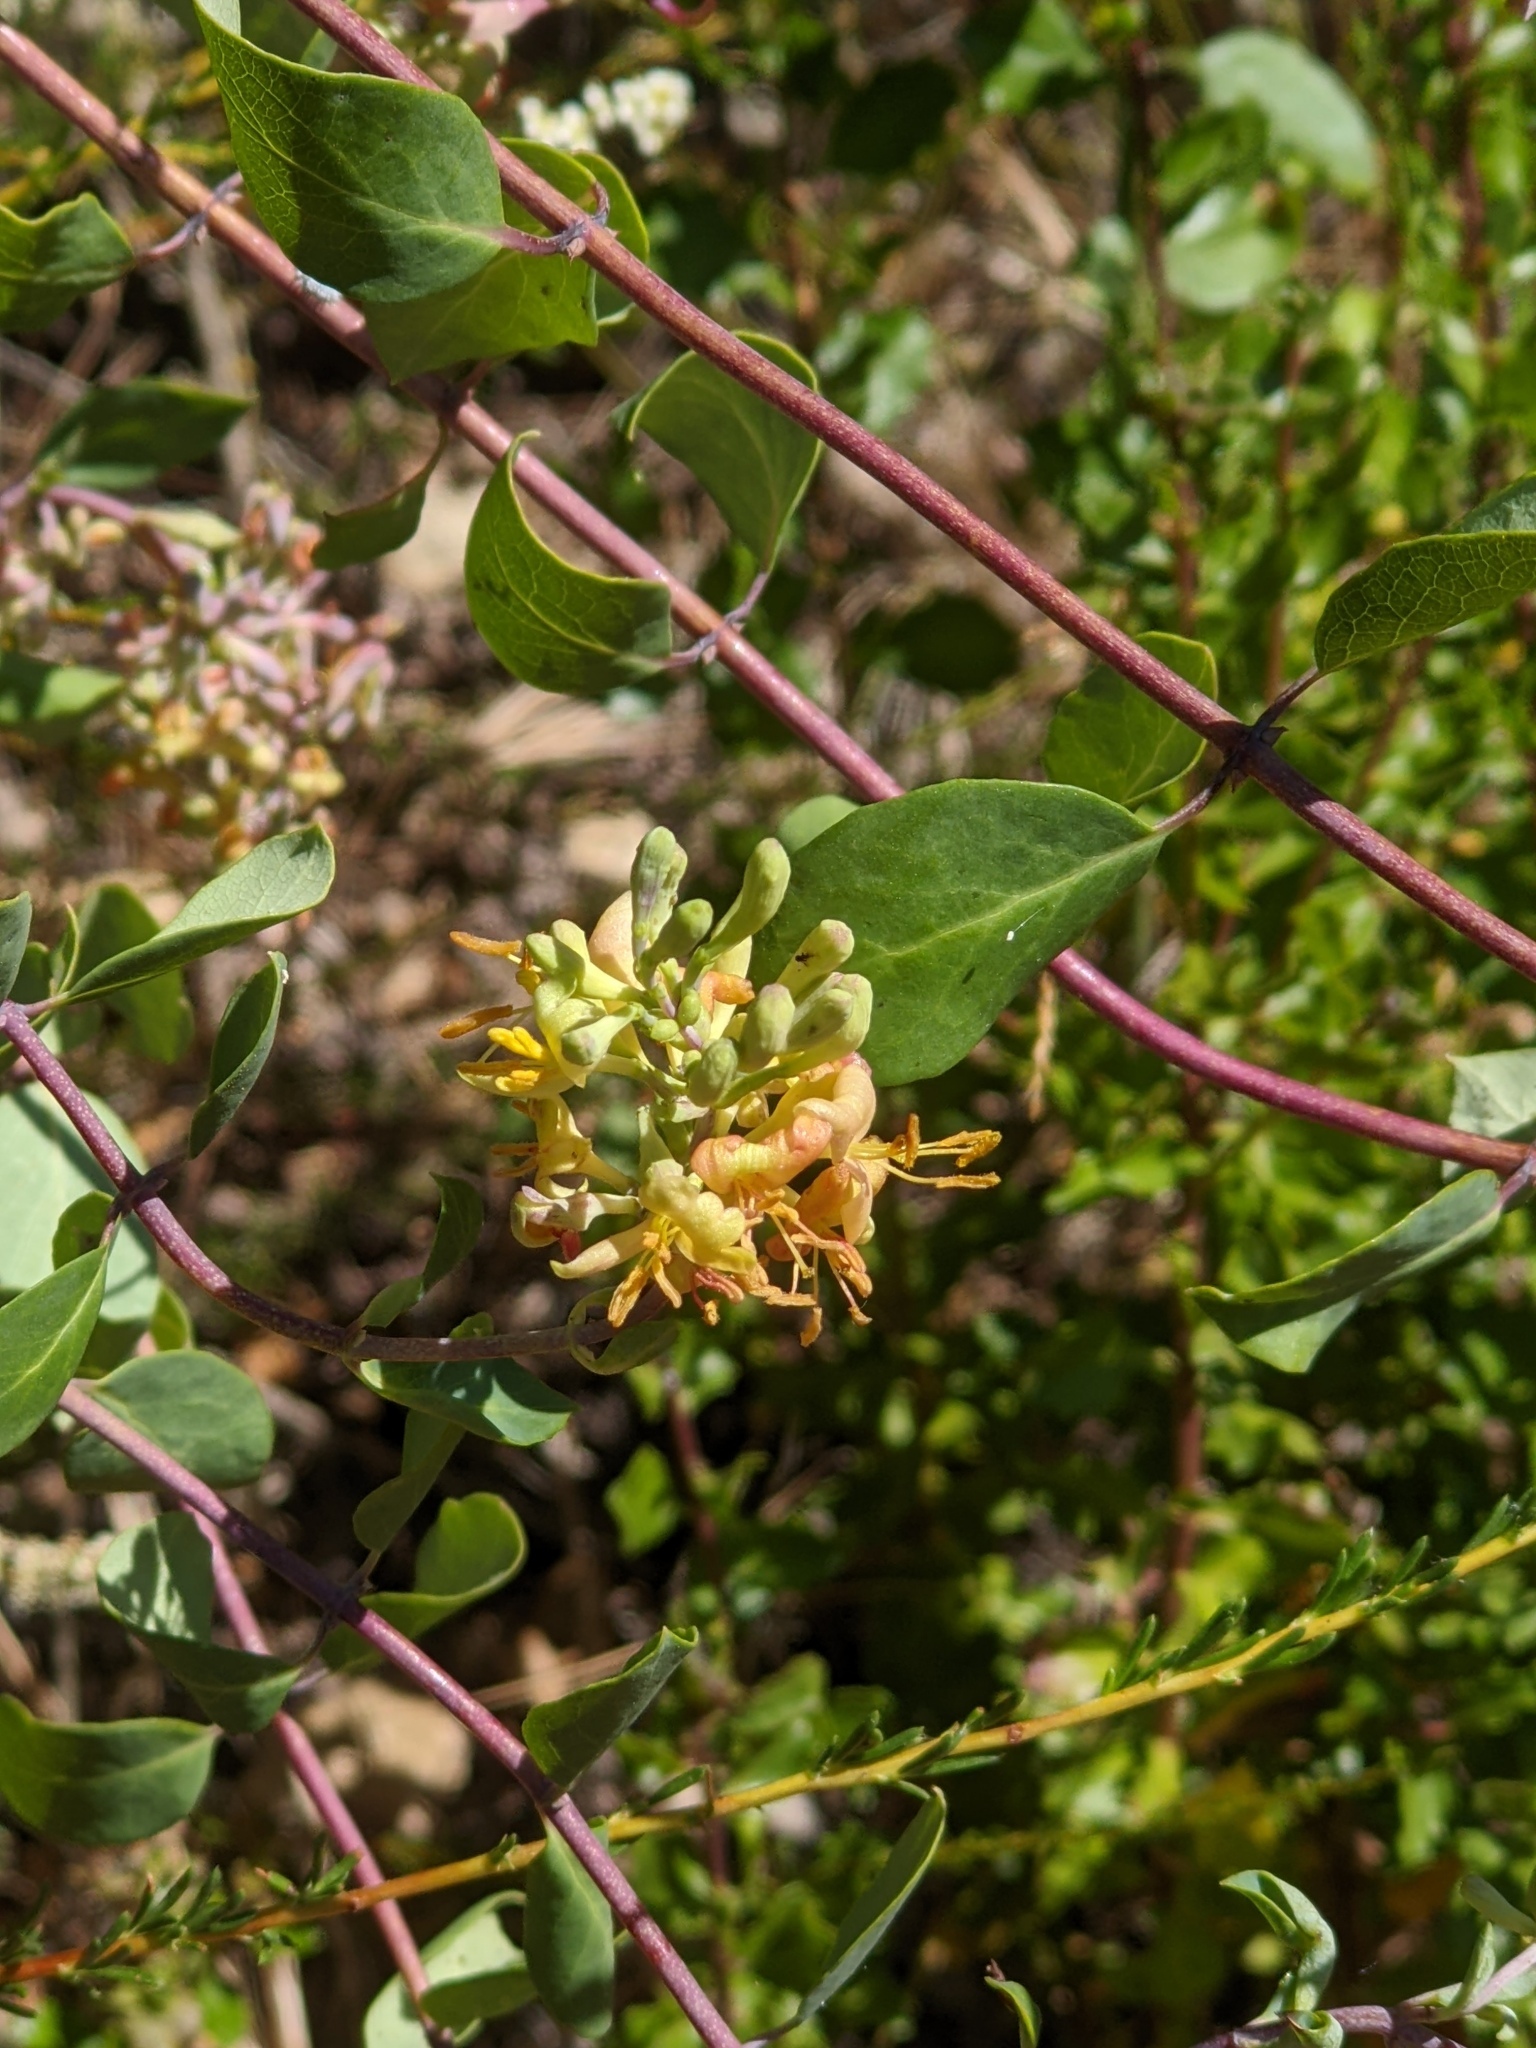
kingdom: Plantae
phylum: Tracheophyta
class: Magnoliopsida
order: Dipsacales
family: Caprifoliaceae
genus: Lonicera
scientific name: Lonicera subspicata
